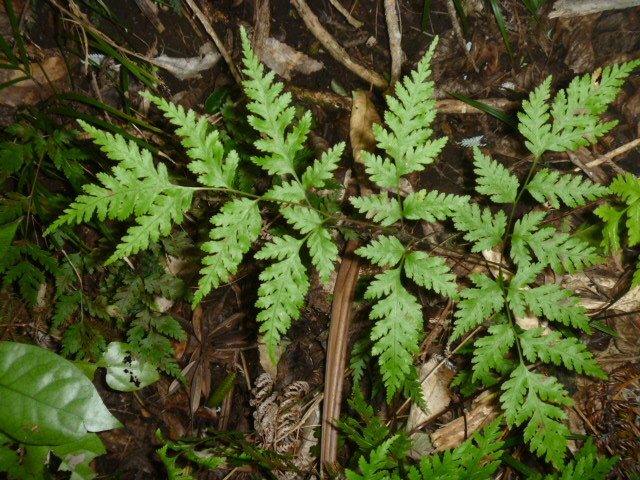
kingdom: Plantae
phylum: Tracheophyta
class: Polypodiopsida
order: Polypodiales
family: Pteridaceae
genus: Pteris
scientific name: Pteris macilenta
